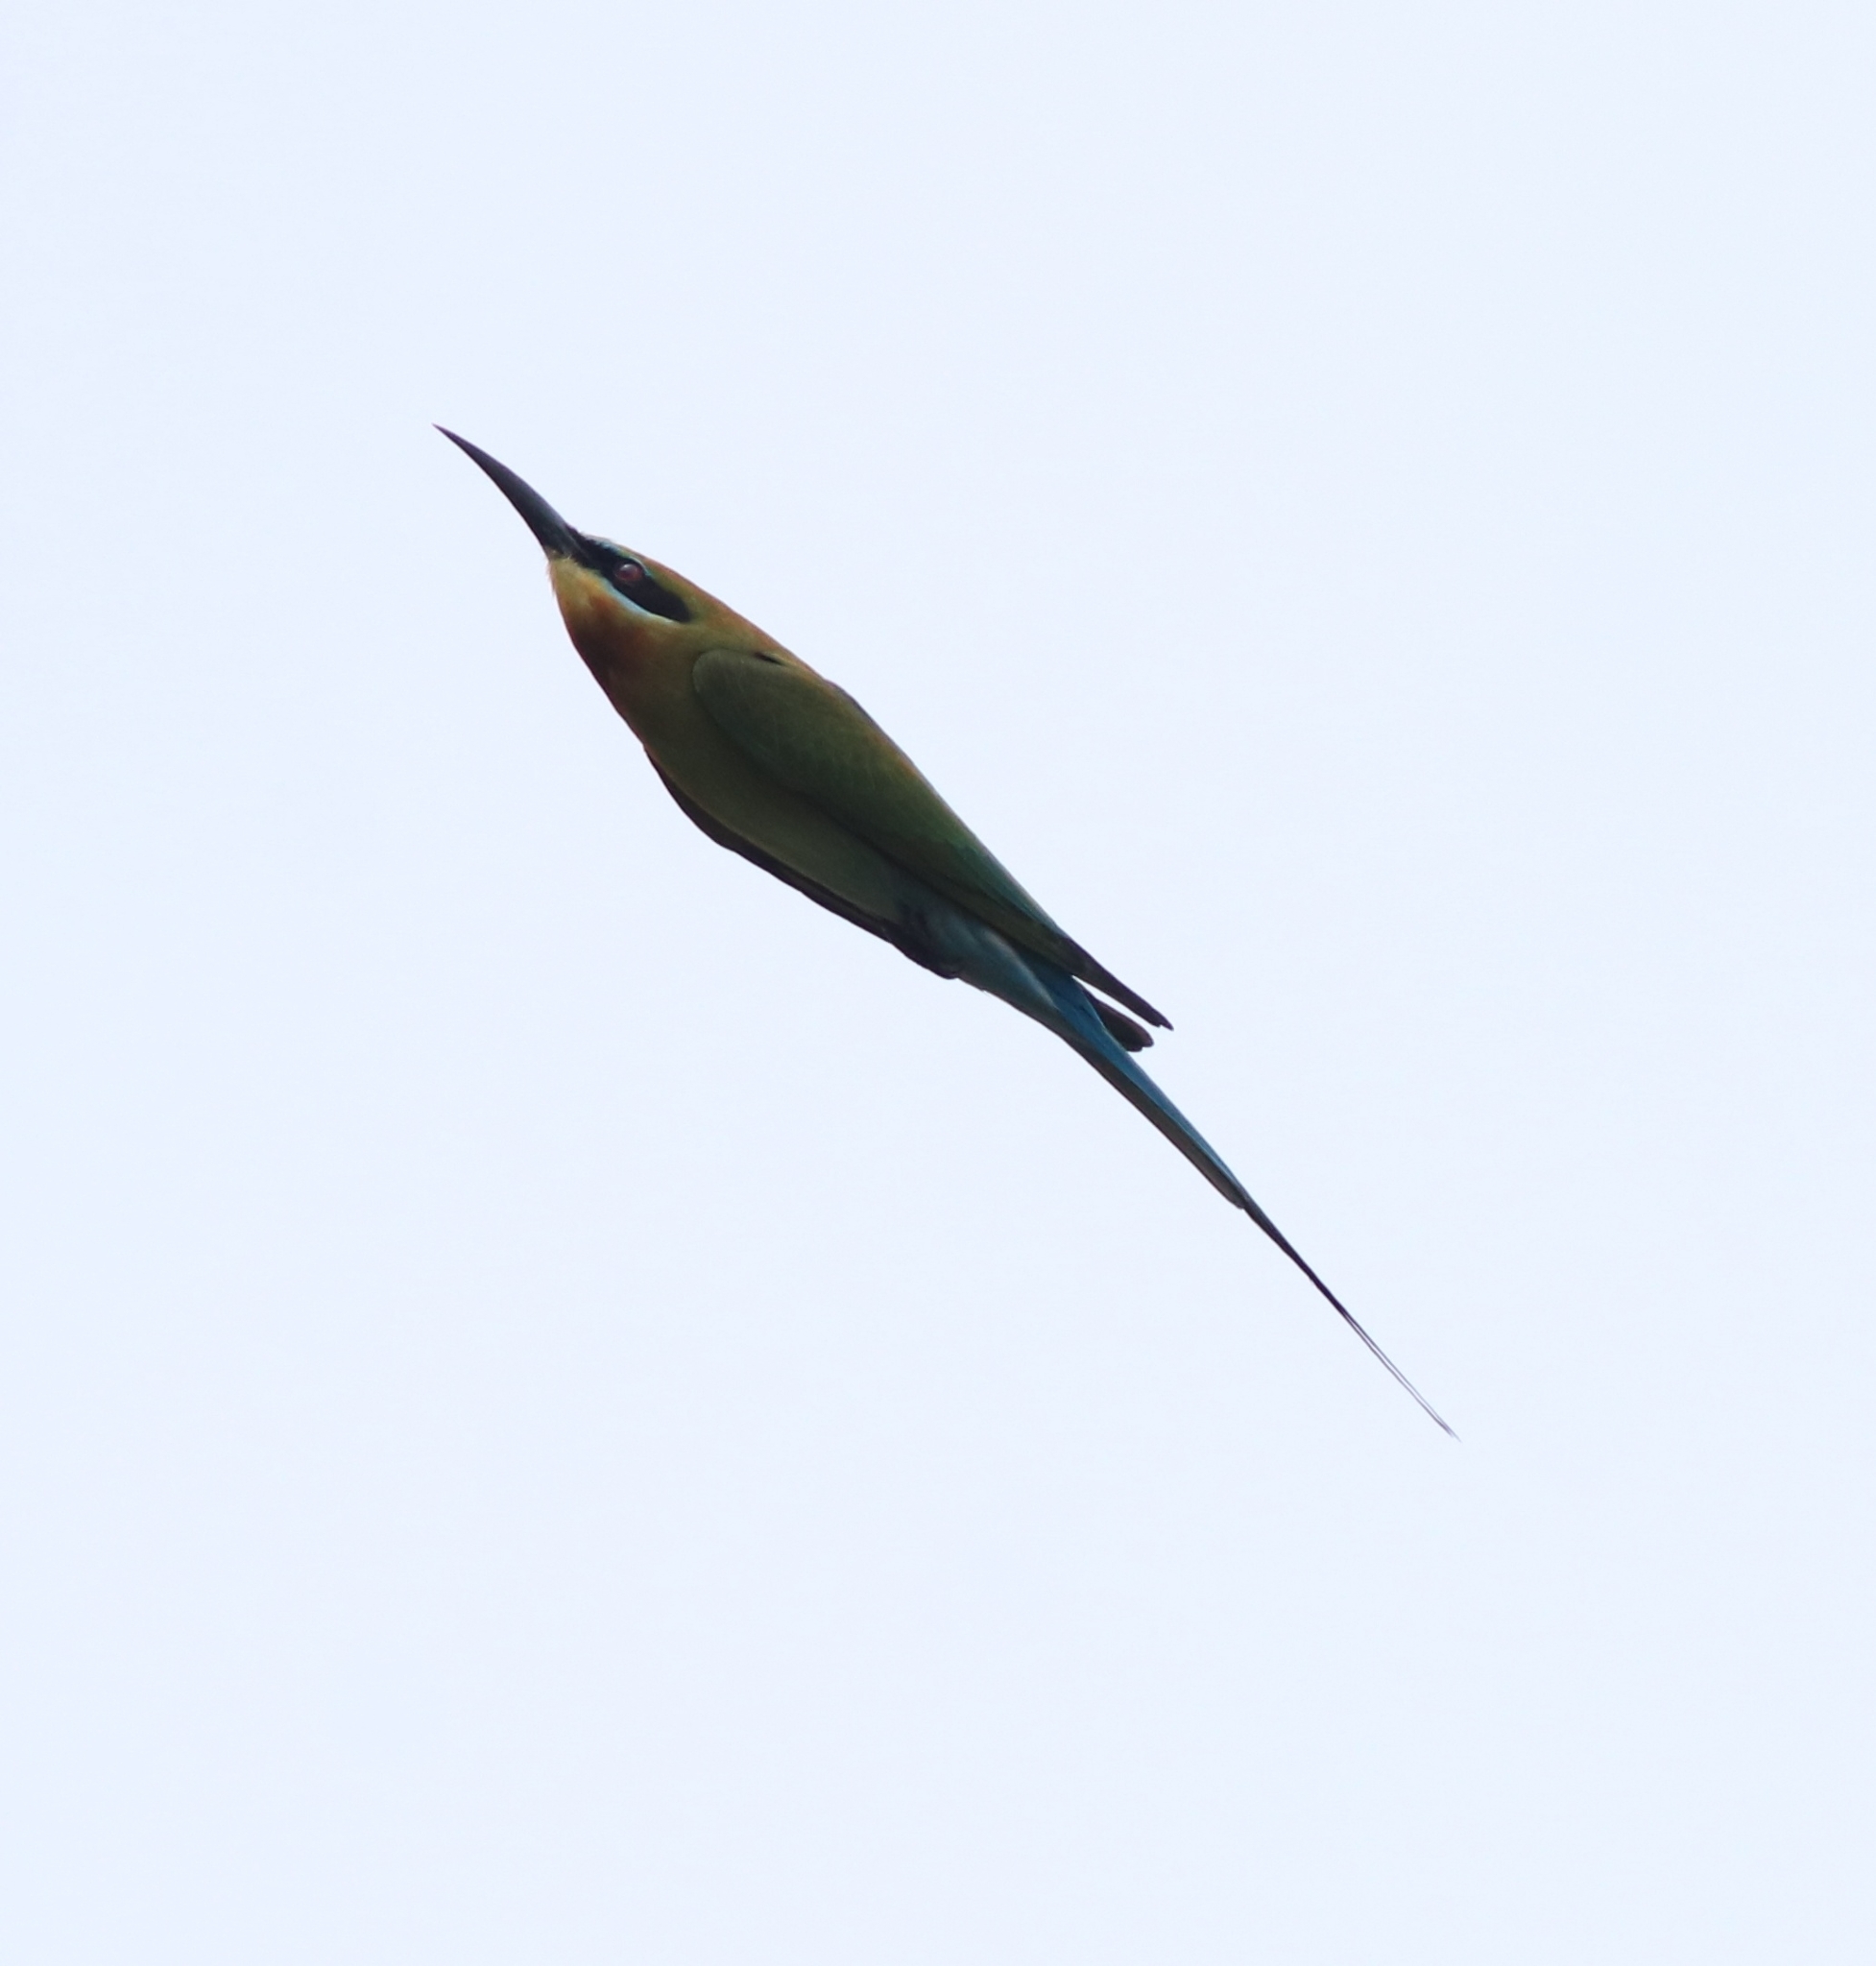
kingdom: Animalia
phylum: Chordata
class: Aves
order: Coraciiformes
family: Meropidae
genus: Merops
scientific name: Merops philippinus
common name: Blue-tailed bee-eater
